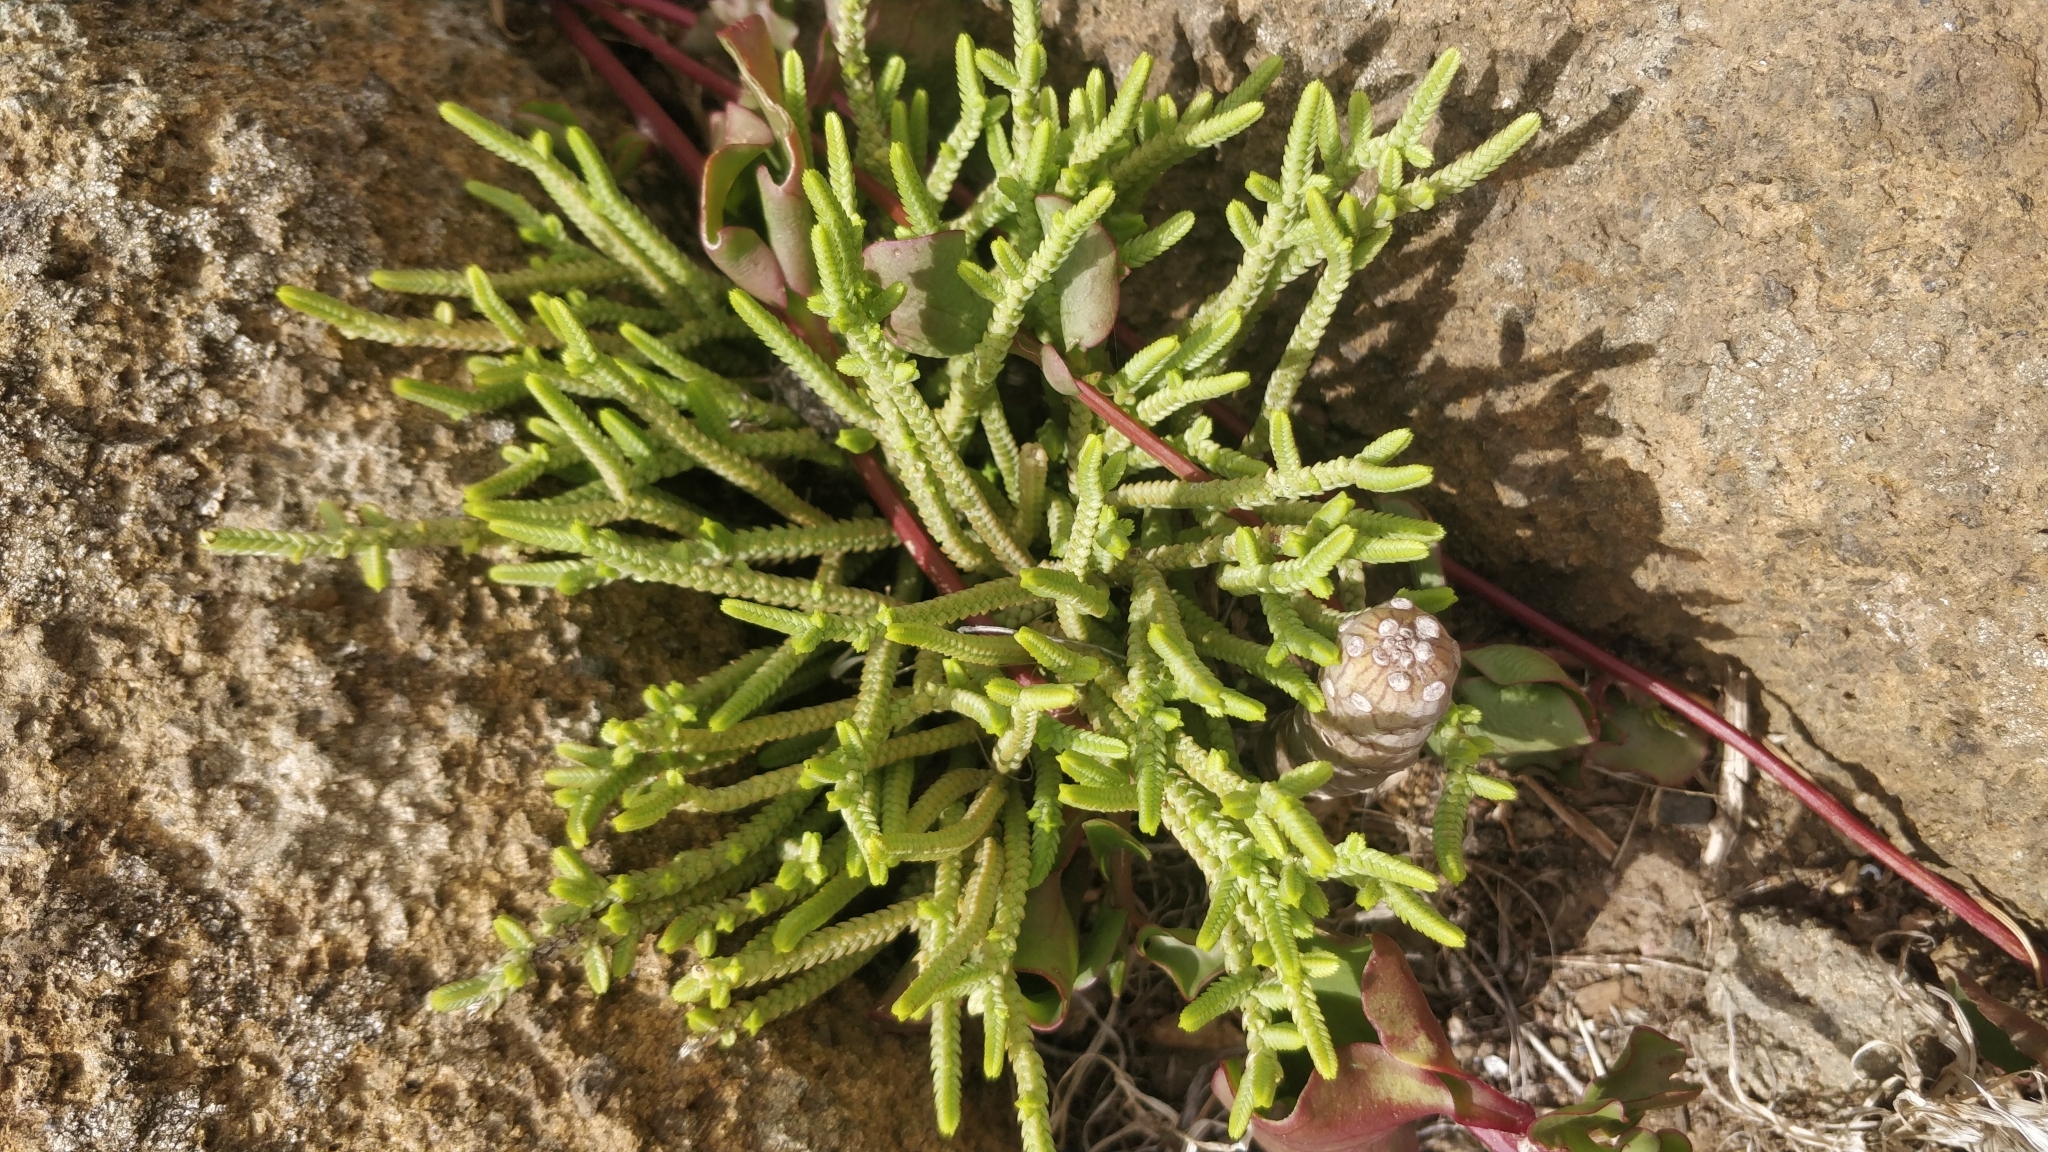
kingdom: Plantae
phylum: Tracheophyta
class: Magnoliopsida
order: Saxifragales
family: Crassulaceae
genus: Crassula
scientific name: Crassula muscosa
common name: Toy-cypress
